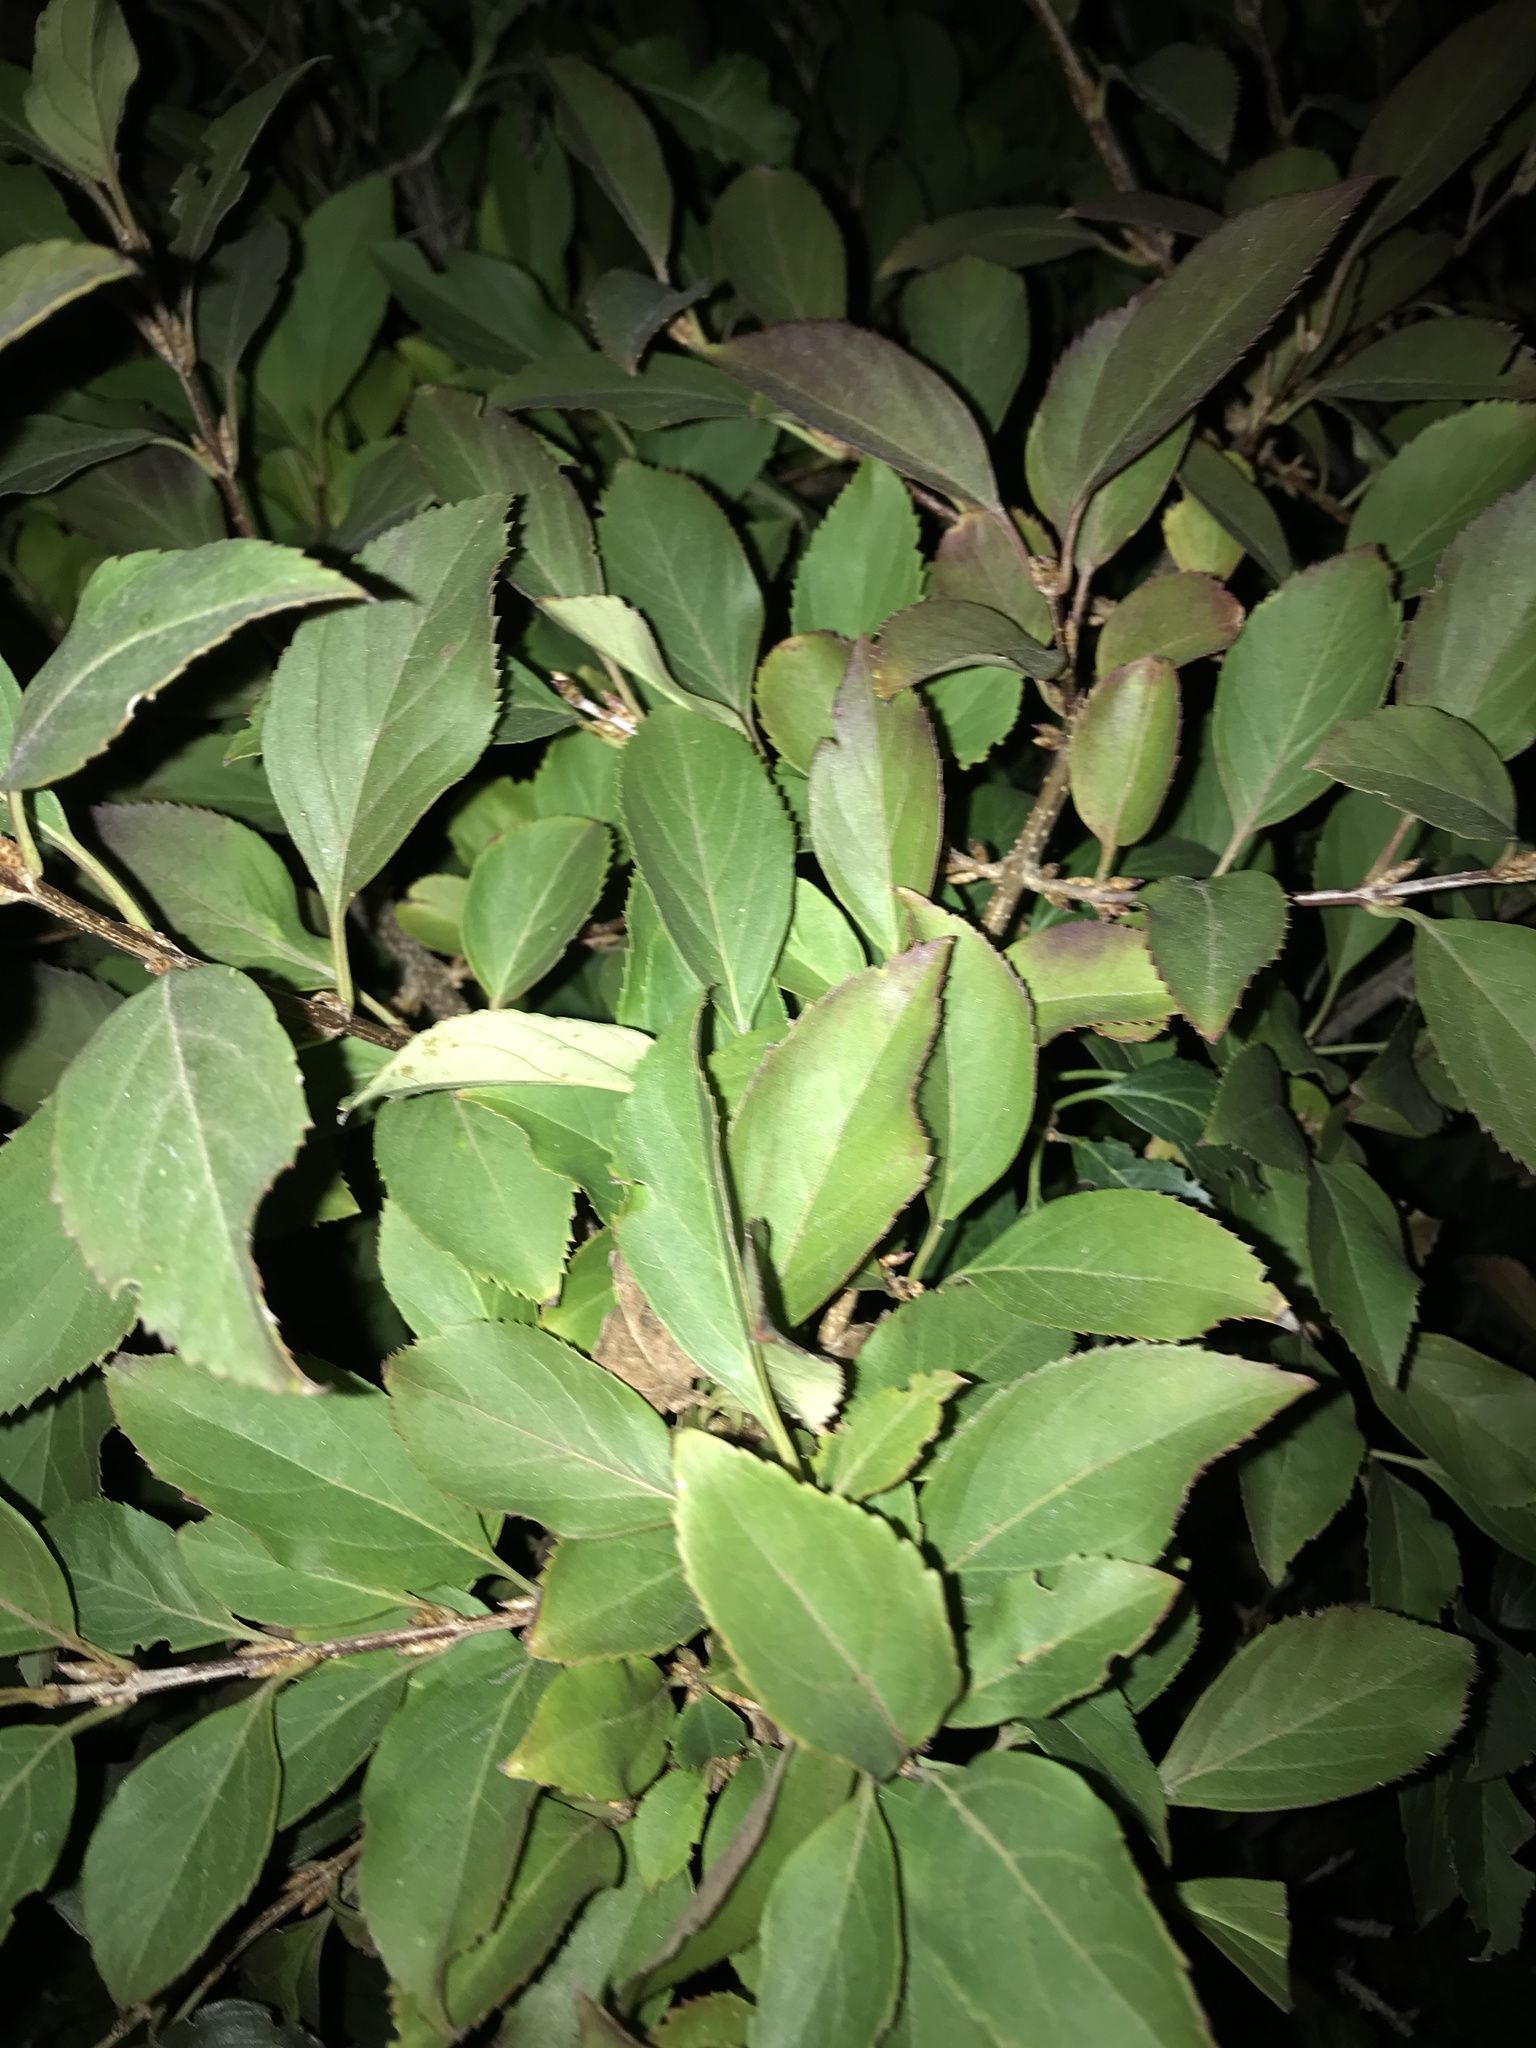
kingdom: Plantae
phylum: Tracheophyta
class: Magnoliopsida
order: Dipsacales
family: Viburnaceae
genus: Viburnum
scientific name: Viburnum
